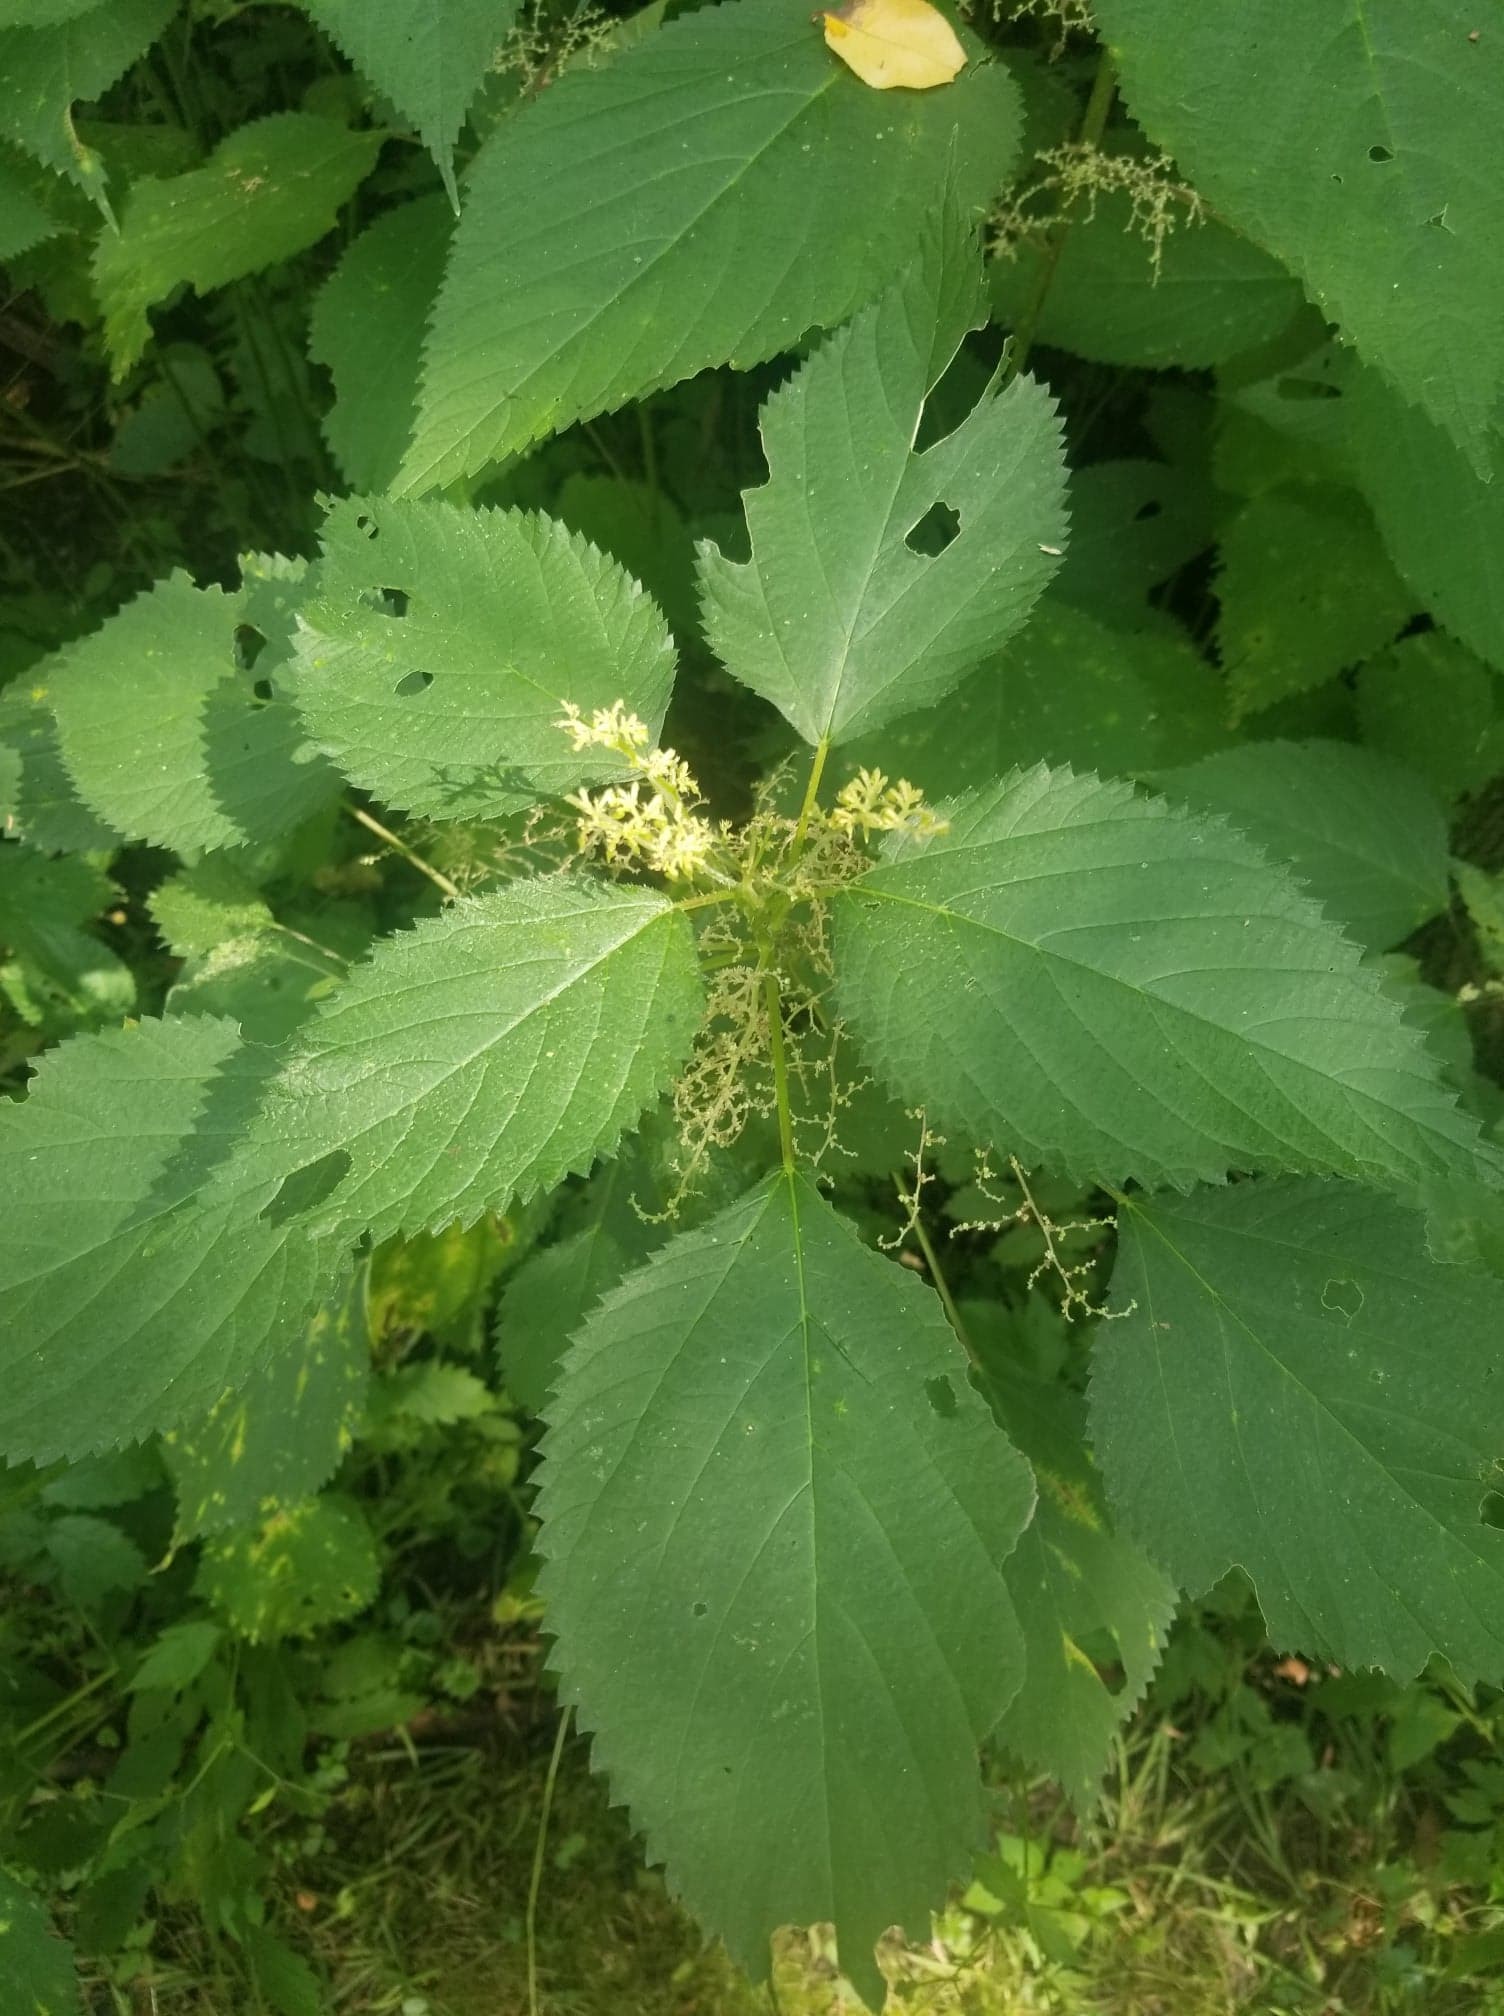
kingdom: Plantae
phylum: Tracheophyta
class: Magnoliopsida
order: Rosales
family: Urticaceae
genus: Laportea
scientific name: Laportea canadensis
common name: Canada nettle
